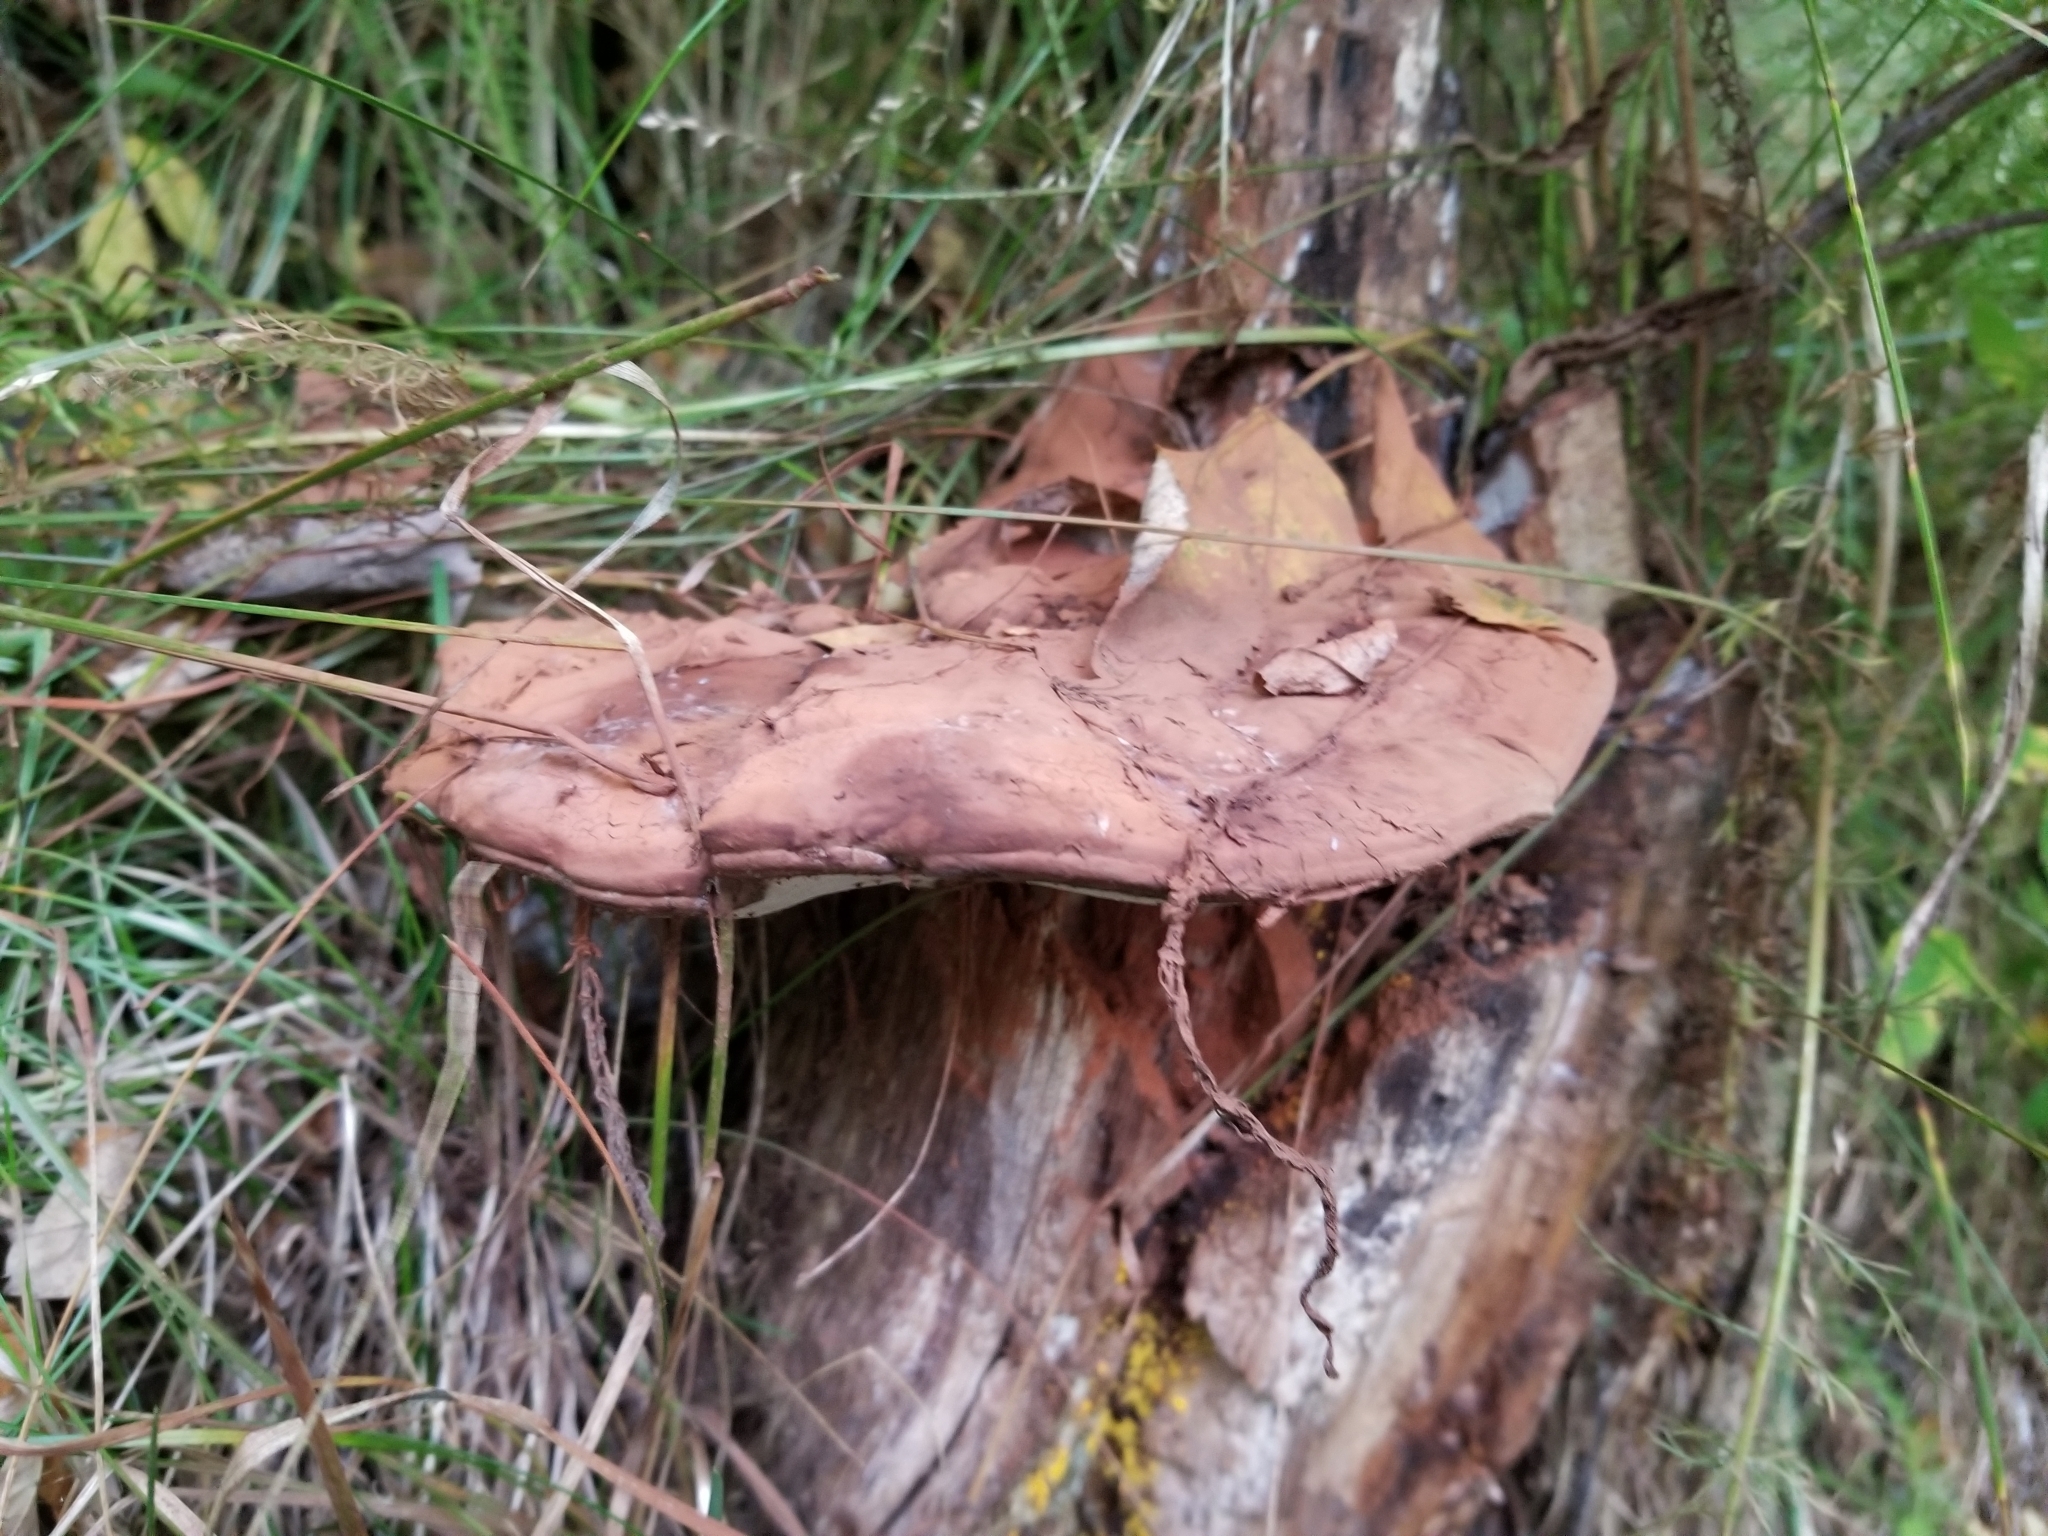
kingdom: Fungi
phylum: Basidiomycota
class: Agaricomycetes
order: Polyporales
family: Polyporaceae
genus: Ganoderma
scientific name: Ganoderma applanatum
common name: Artist's bracket
